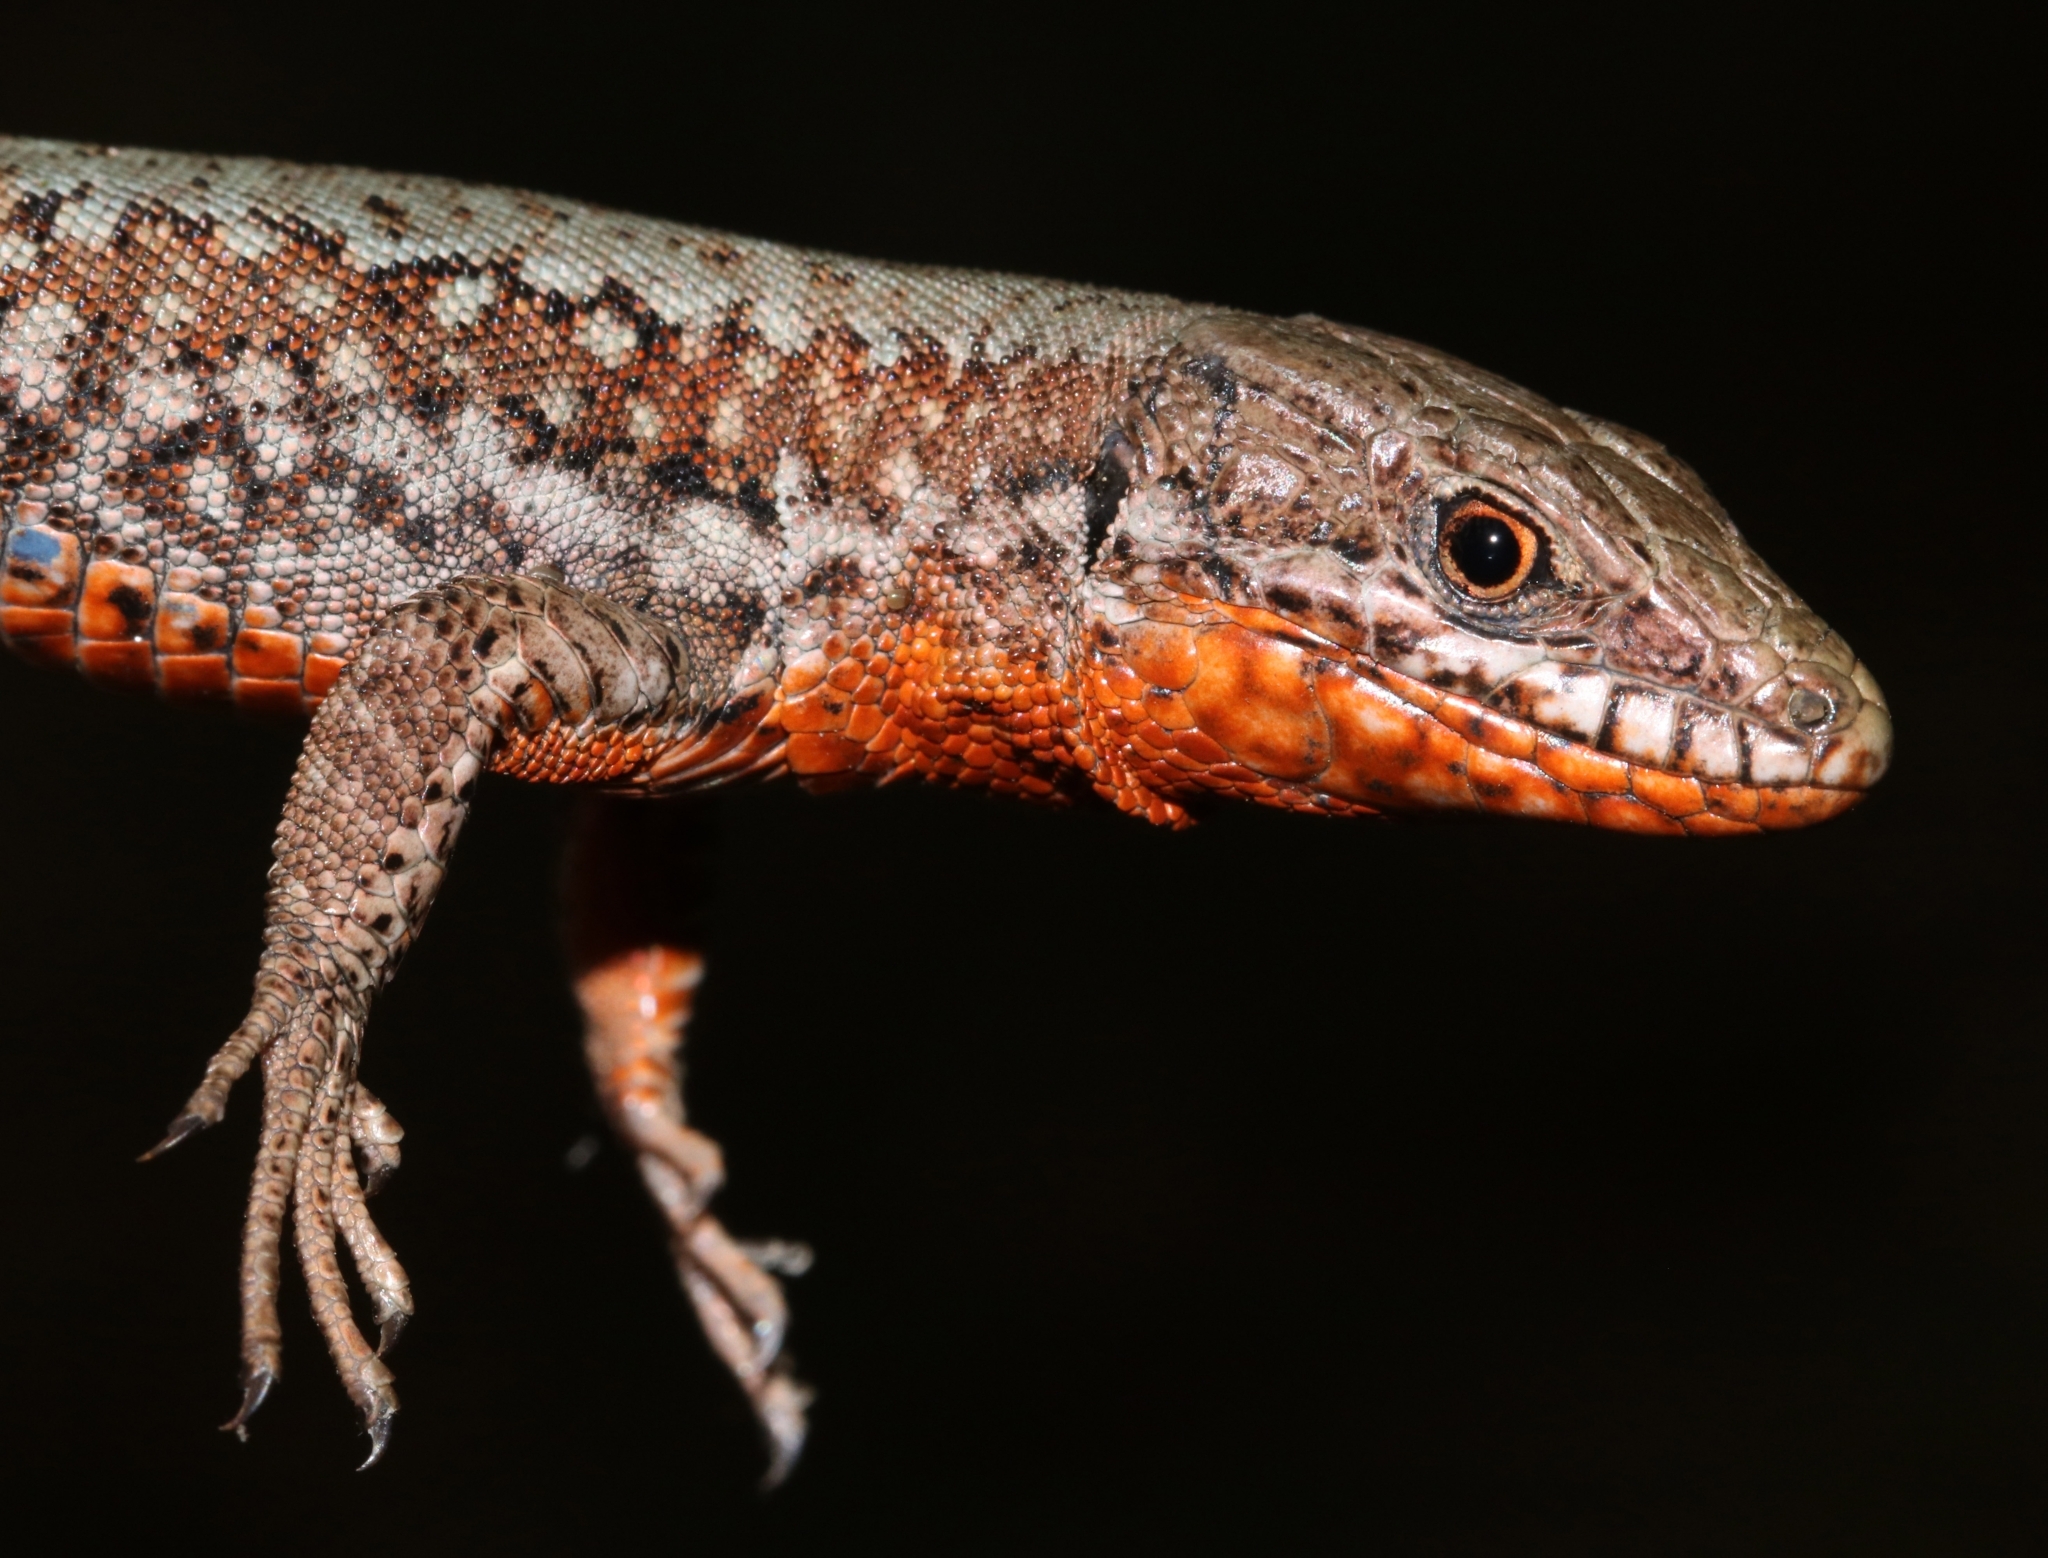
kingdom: Animalia
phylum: Chordata
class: Squamata
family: Lacertidae
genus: Podarcis
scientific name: Podarcis muralis
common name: Common wall lizard
